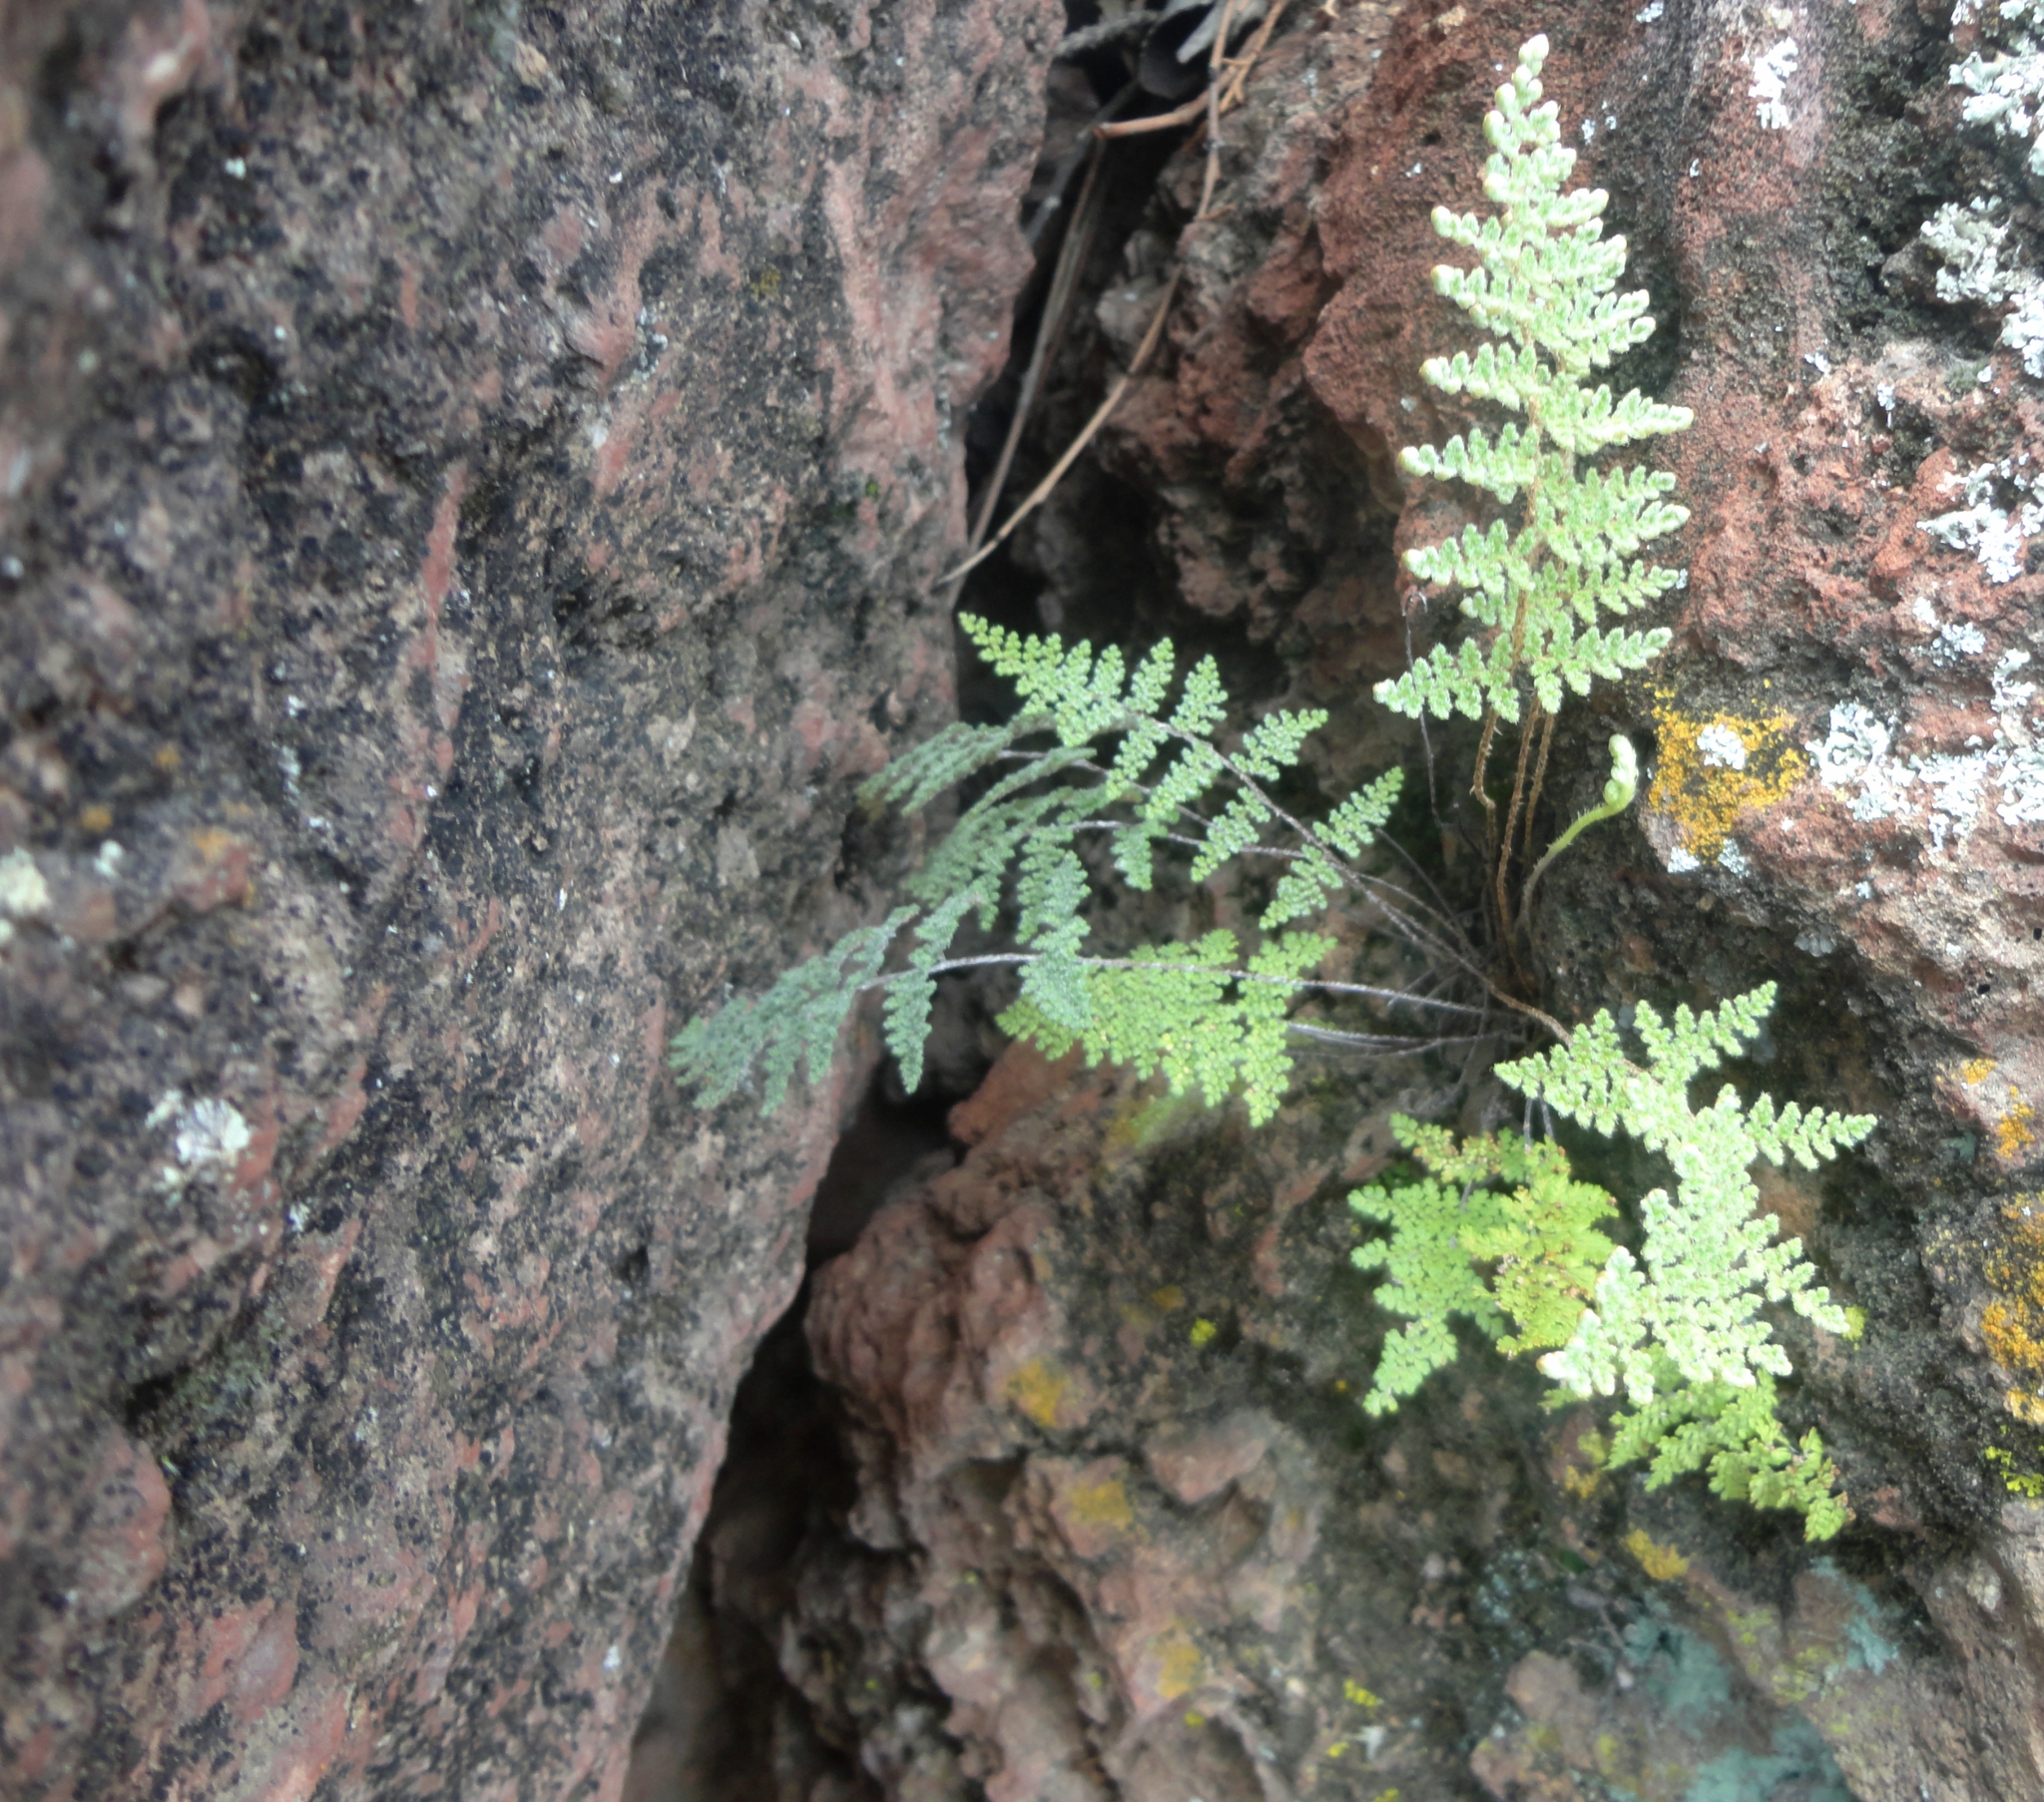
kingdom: Plantae
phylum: Tracheophyta
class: Polypodiopsida
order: Polypodiales
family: Pteridaceae
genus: Myriopteris
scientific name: Myriopteris aurea
